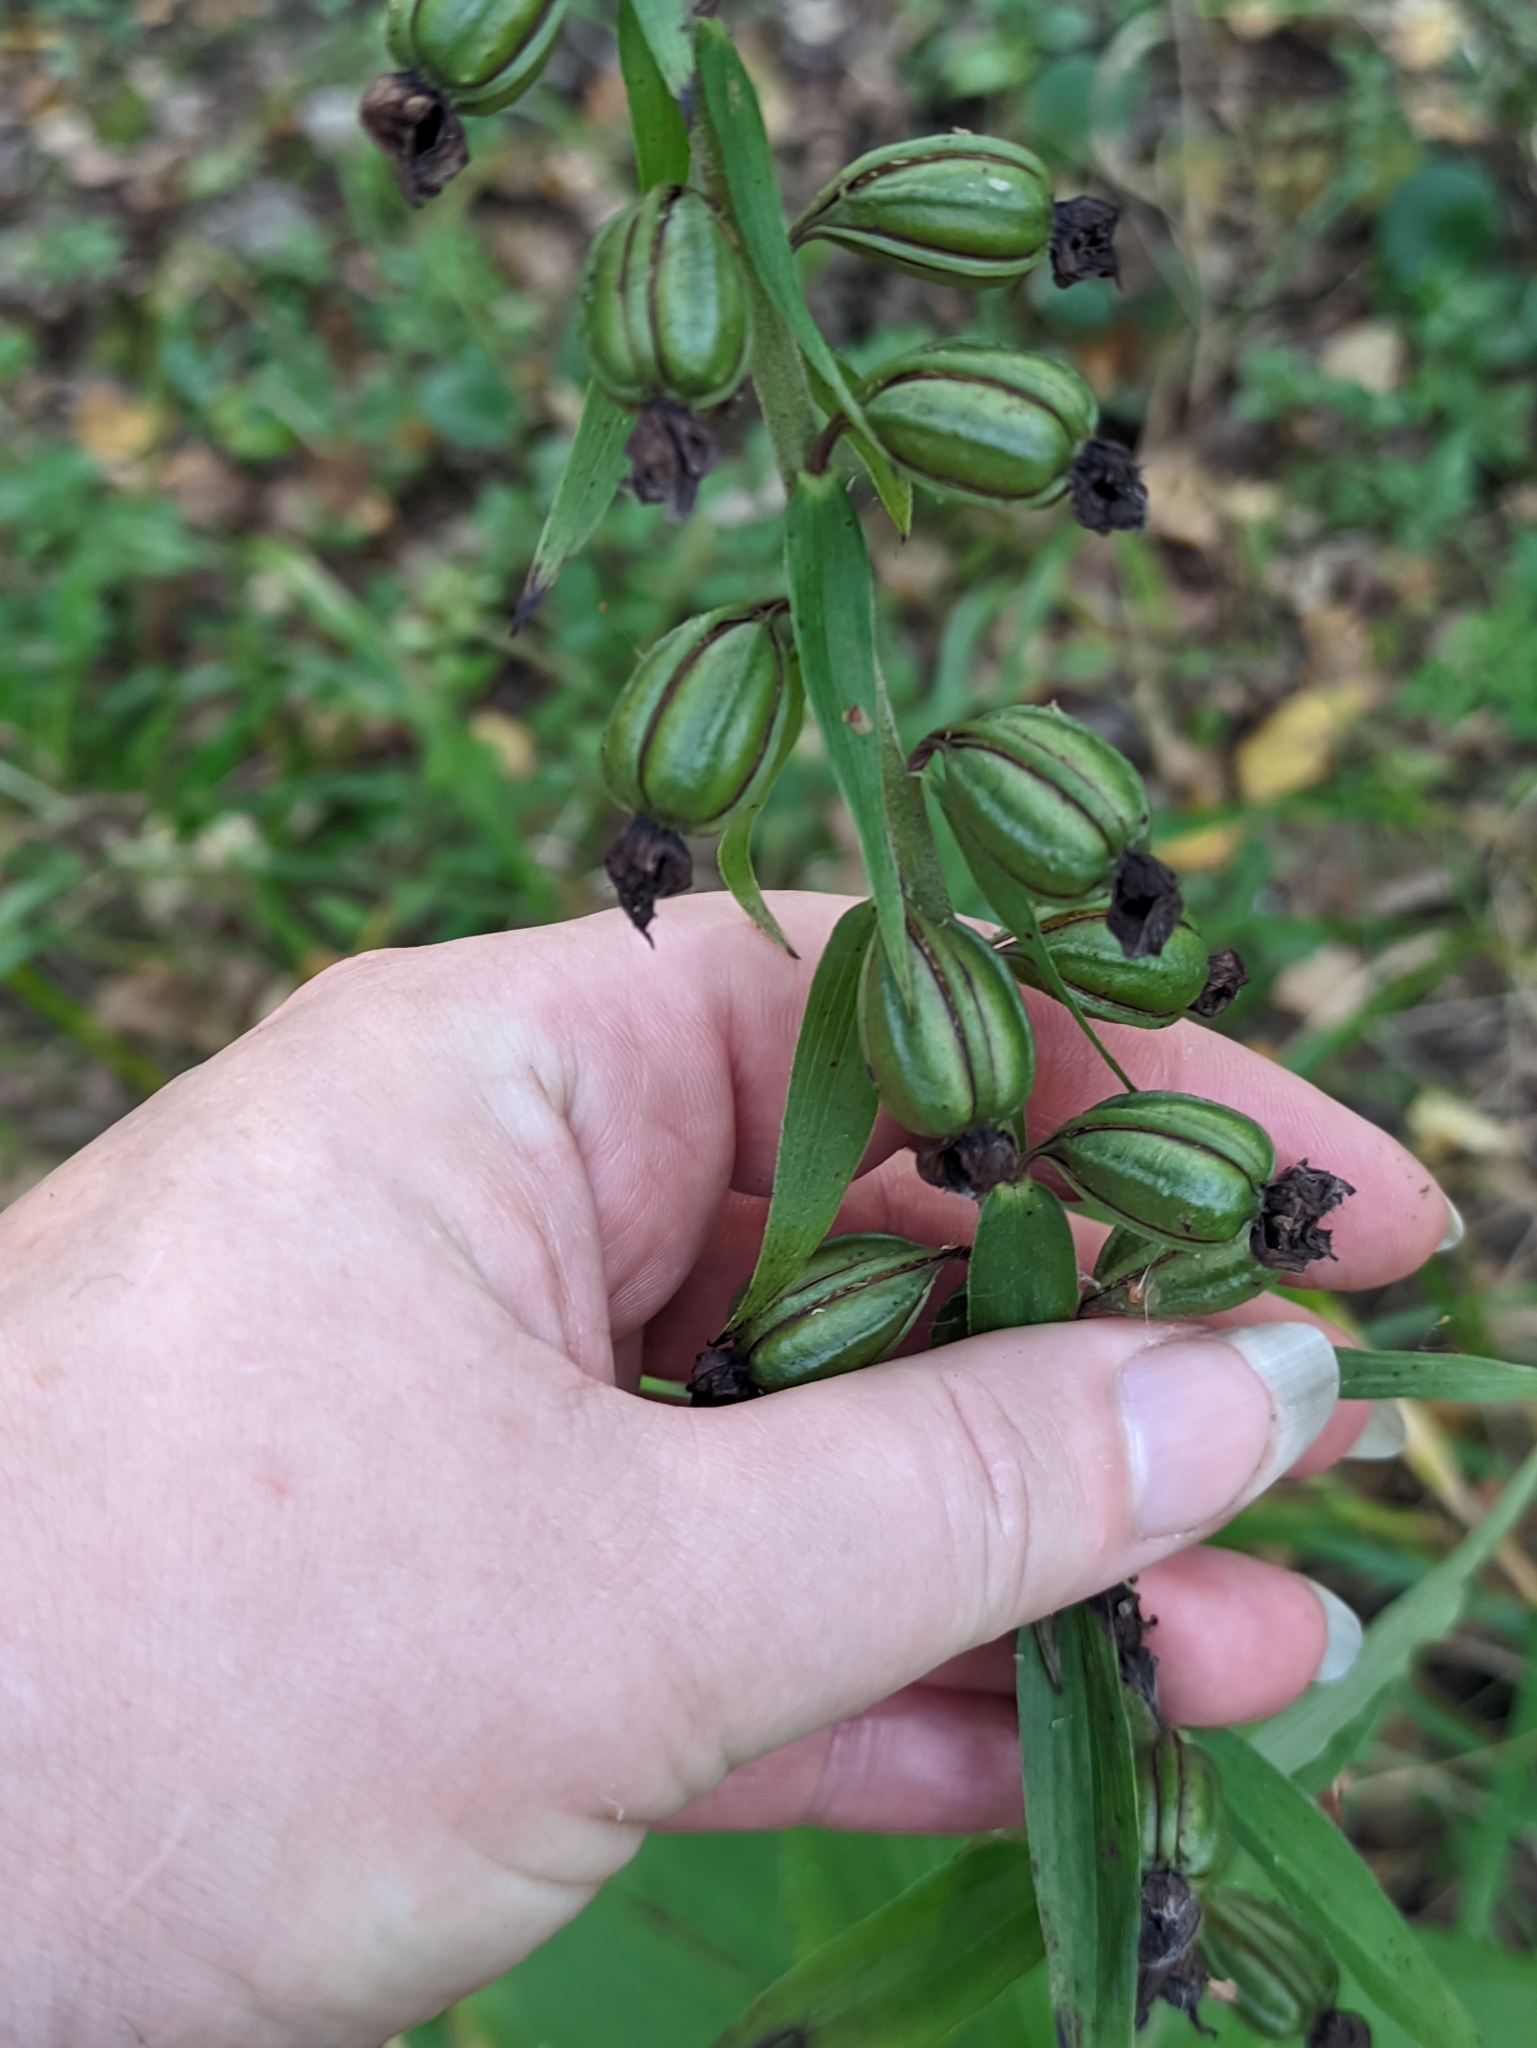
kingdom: Plantae
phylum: Tracheophyta
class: Liliopsida
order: Asparagales
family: Orchidaceae
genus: Epipactis
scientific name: Epipactis helleborine
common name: Broad-leaved helleborine
